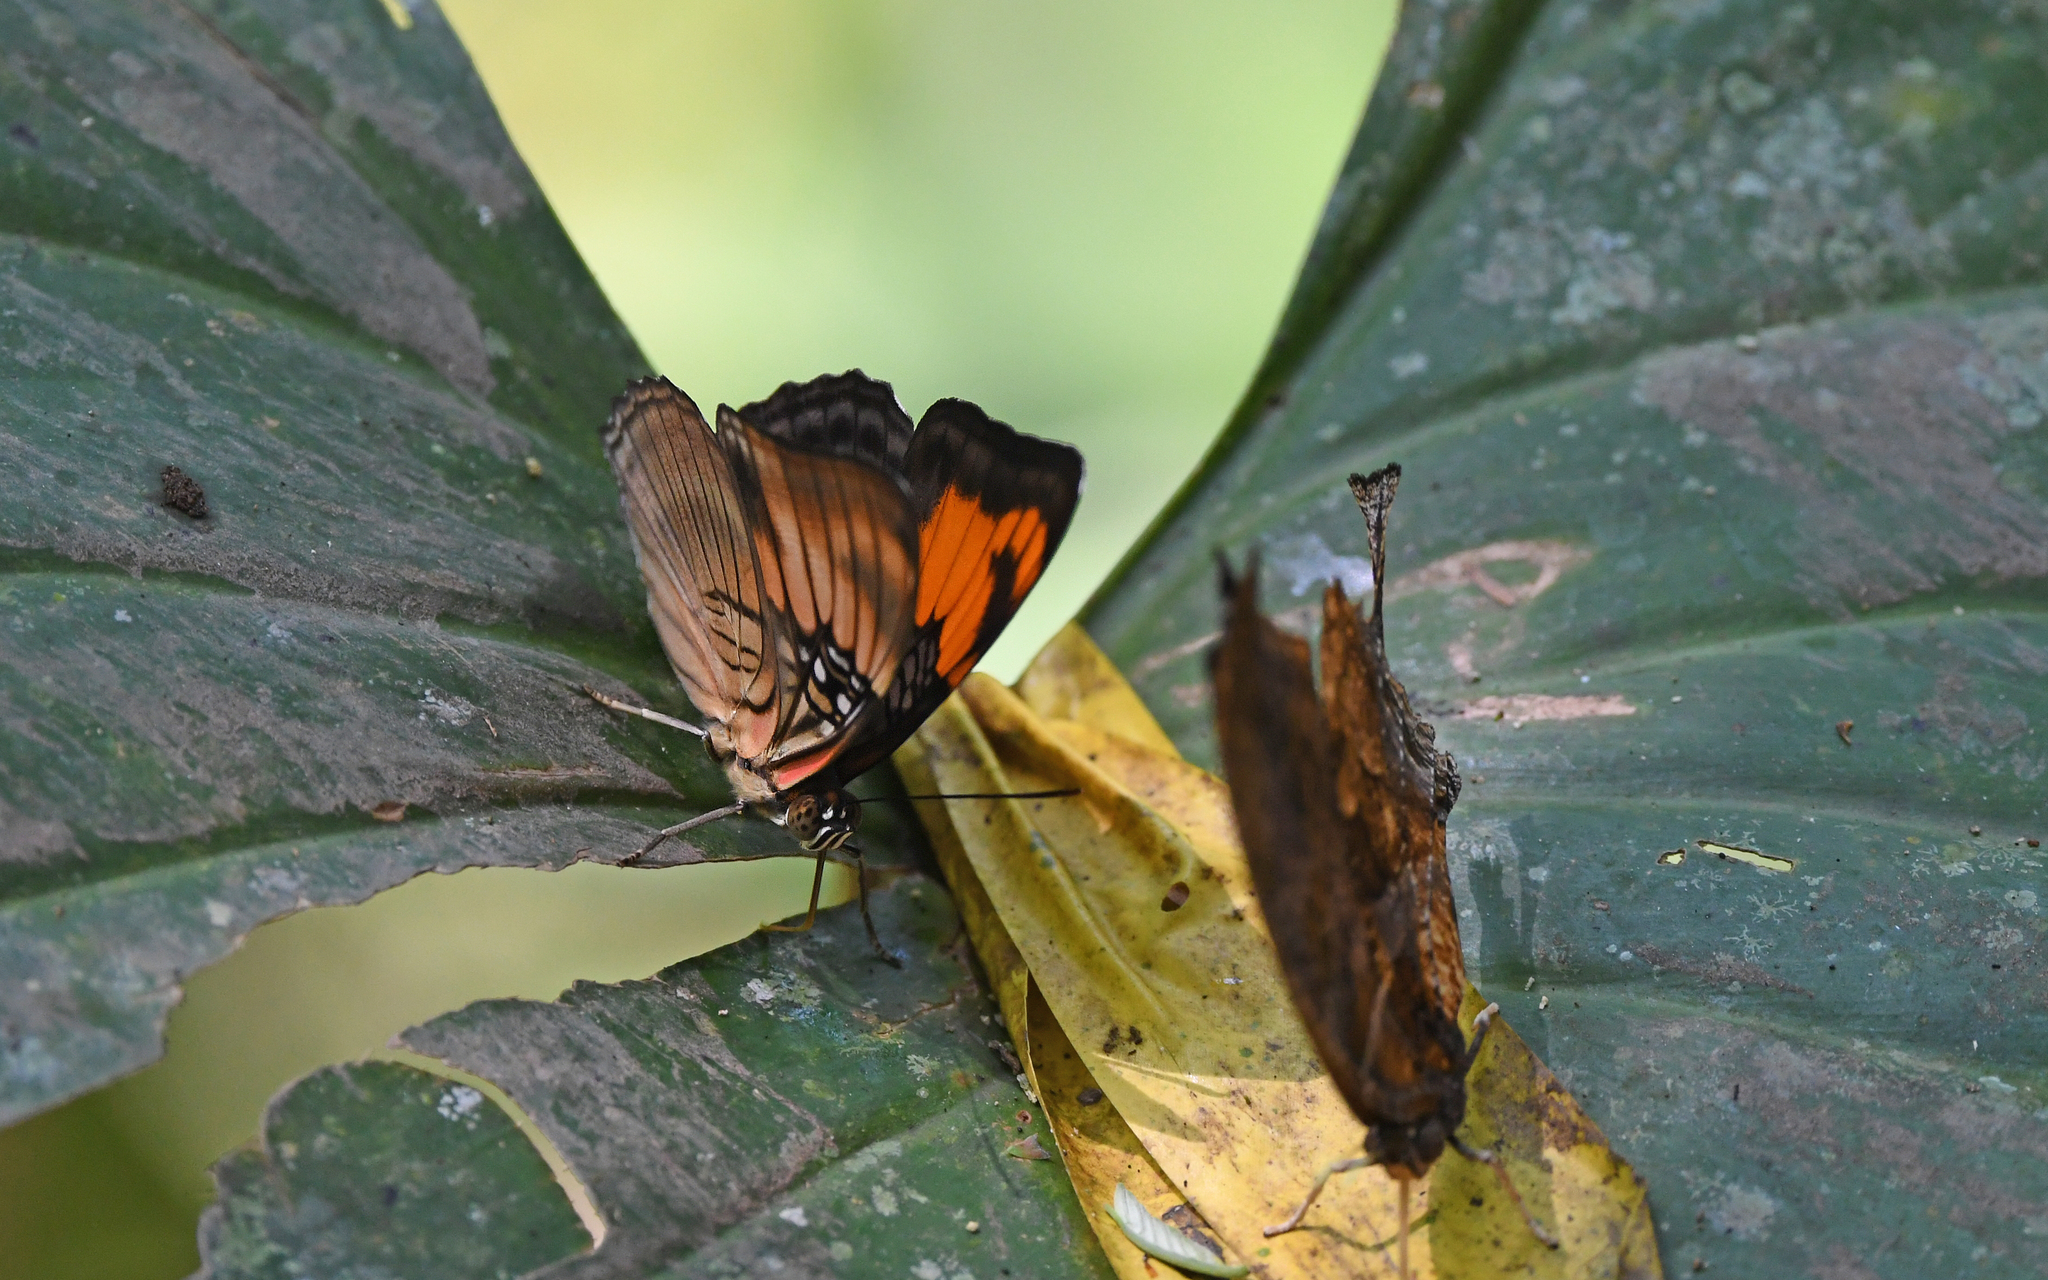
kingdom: Animalia
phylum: Arthropoda
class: Insecta
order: Lepidoptera
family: Nymphalidae
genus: Limenitis
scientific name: Limenitis mesentina
